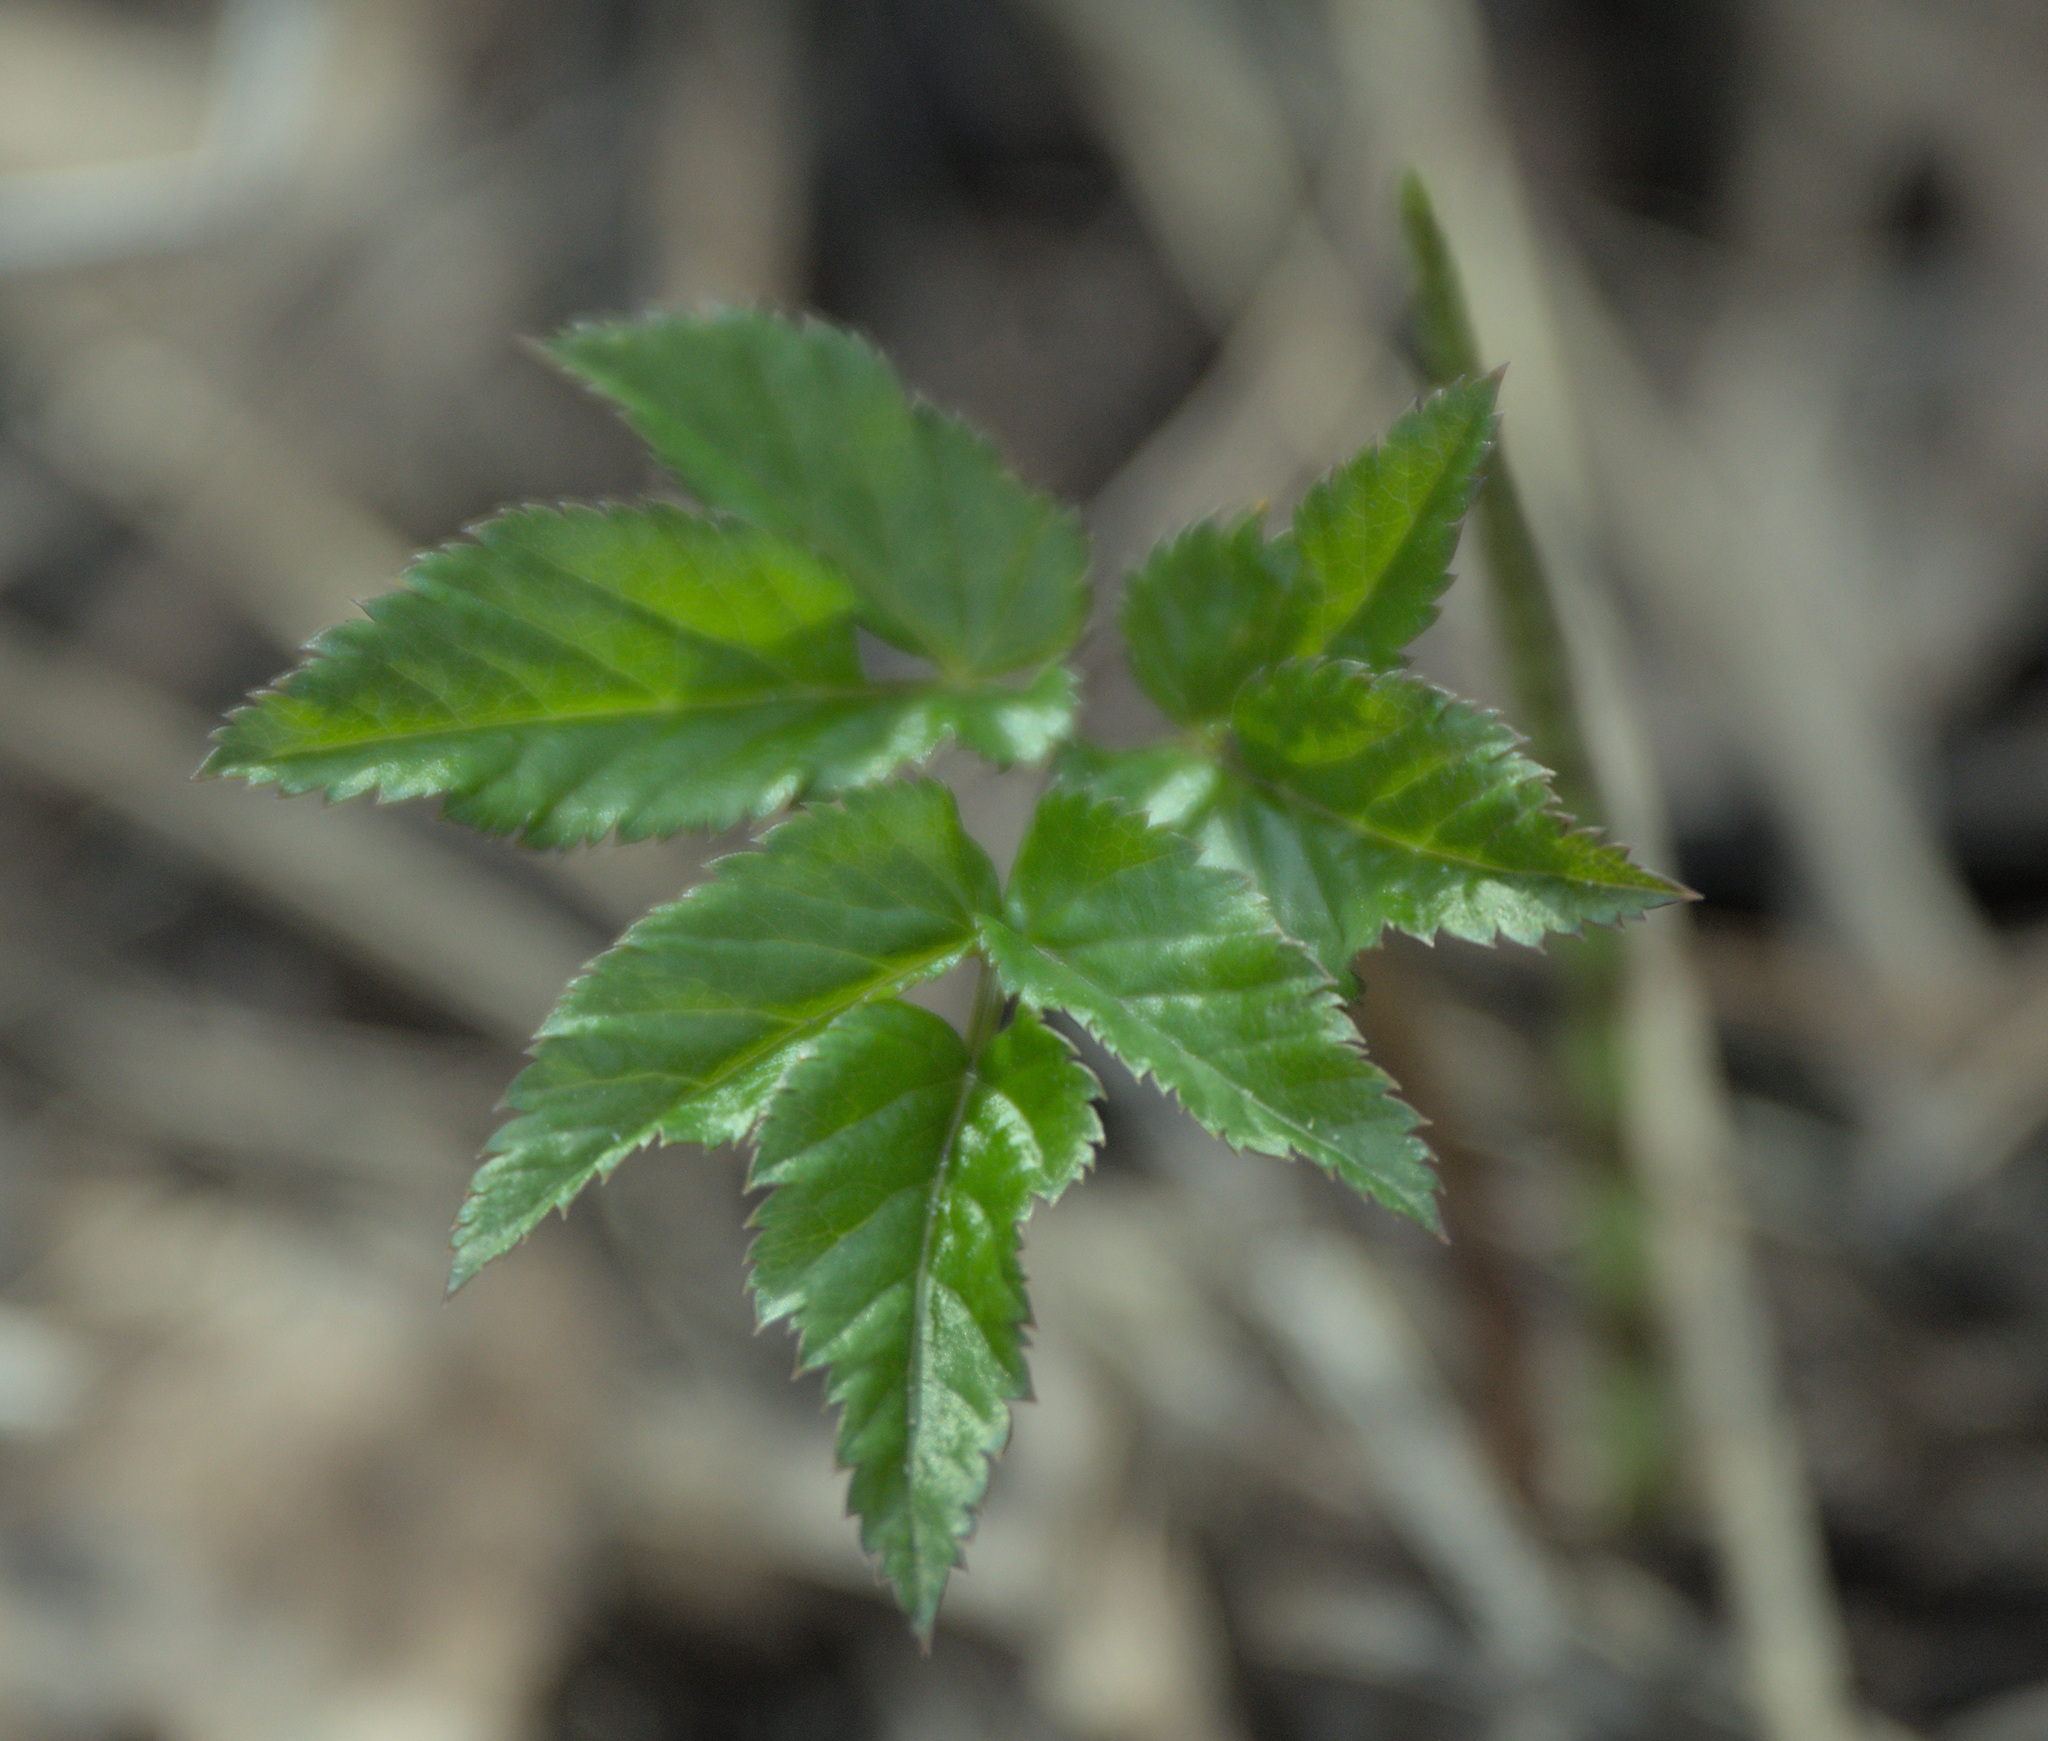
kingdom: Plantae
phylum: Tracheophyta
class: Magnoliopsida
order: Apiales
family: Apiaceae
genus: Aegopodium
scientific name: Aegopodium podagraria
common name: Ground-elder
